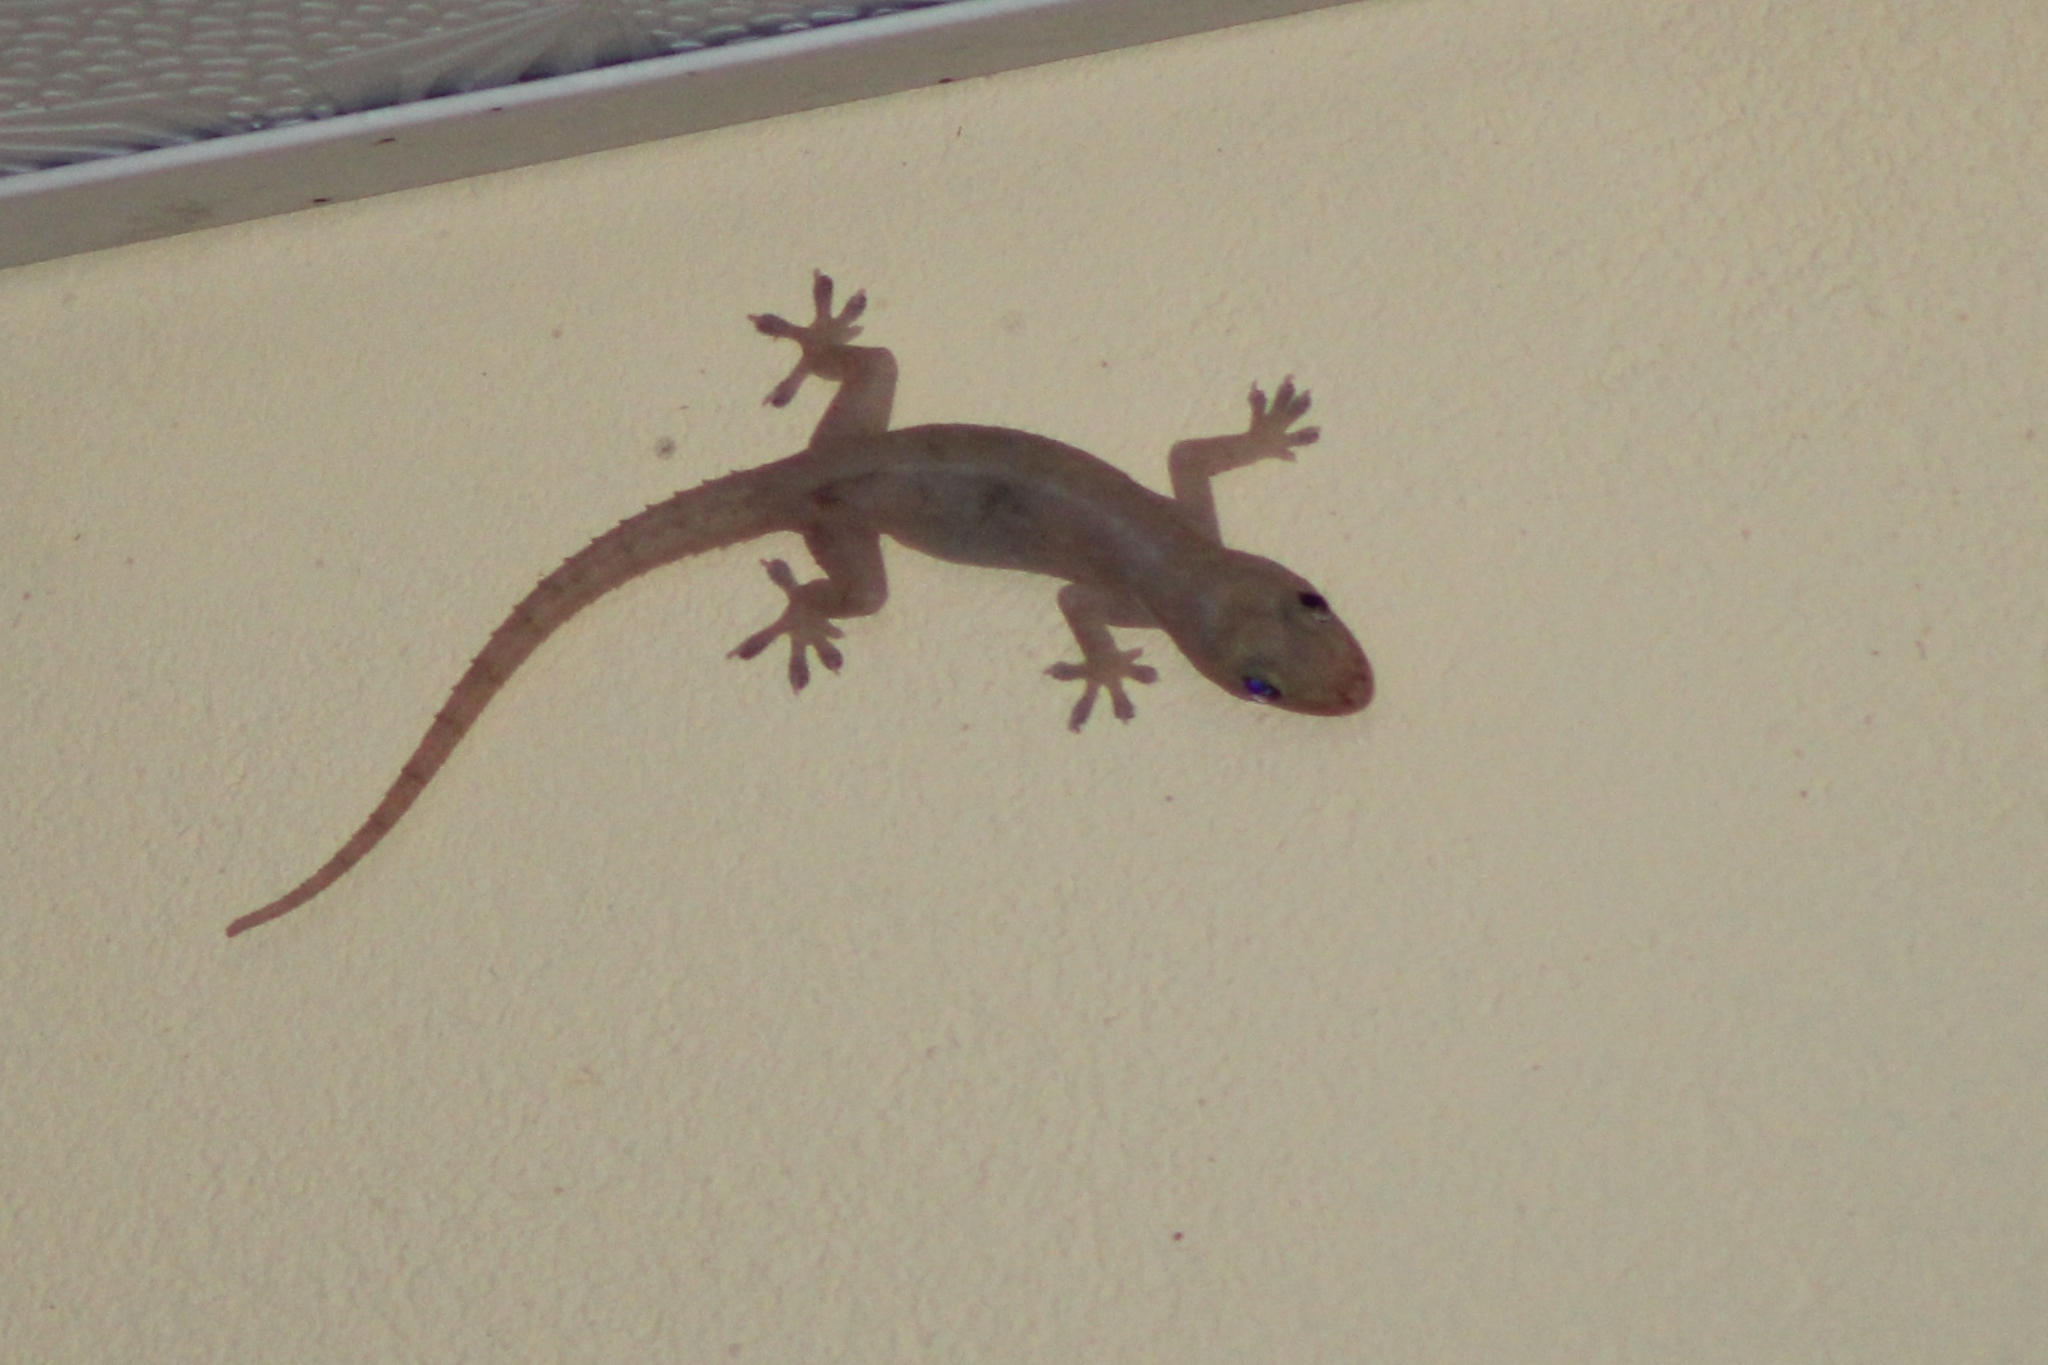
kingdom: Animalia
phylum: Chordata
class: Squamata
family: Gekkonidae
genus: Hemidactylus
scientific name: Hemidactylus frenatus
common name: Common house gecko
